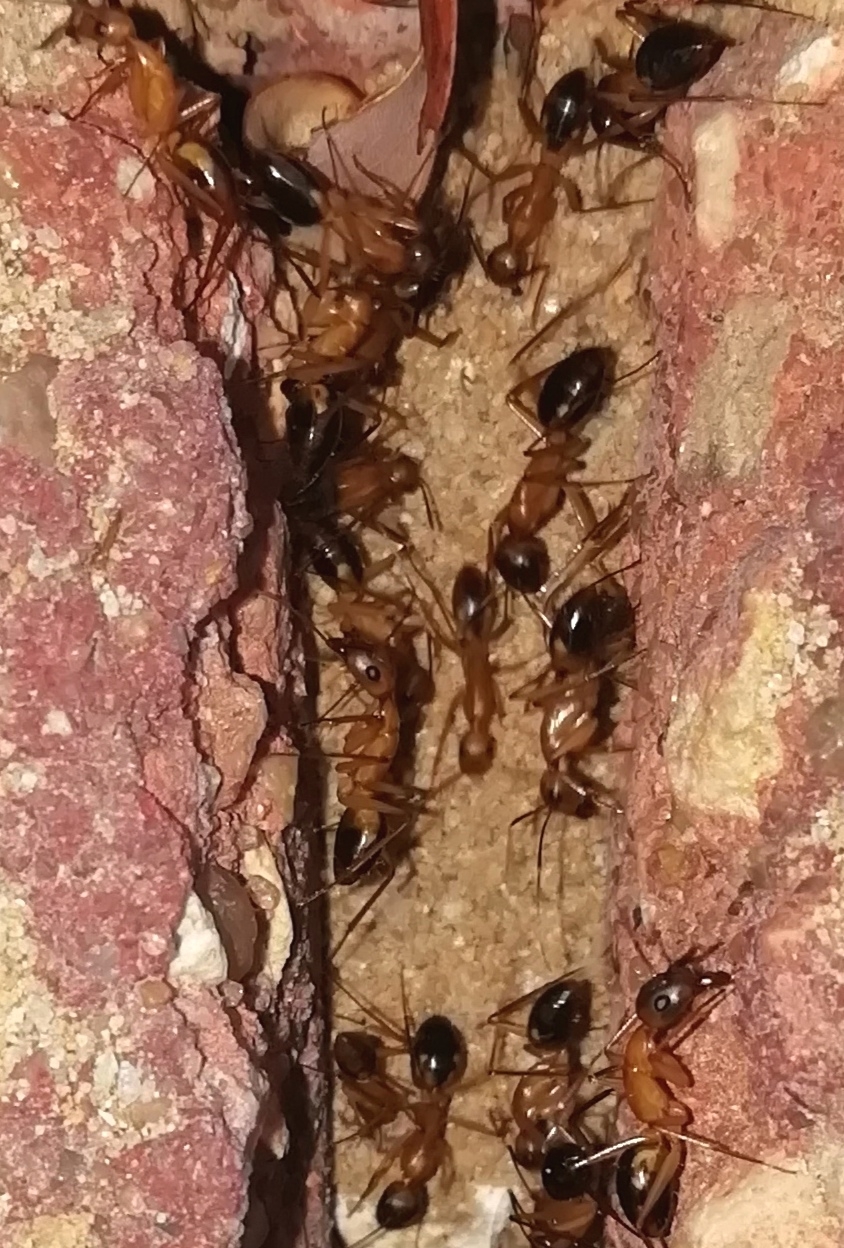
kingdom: Animalia
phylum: Arthropoda
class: Insecta
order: Hymenoptera
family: Formicidae
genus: Camponotus
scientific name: Camponotus aegyptiacus
